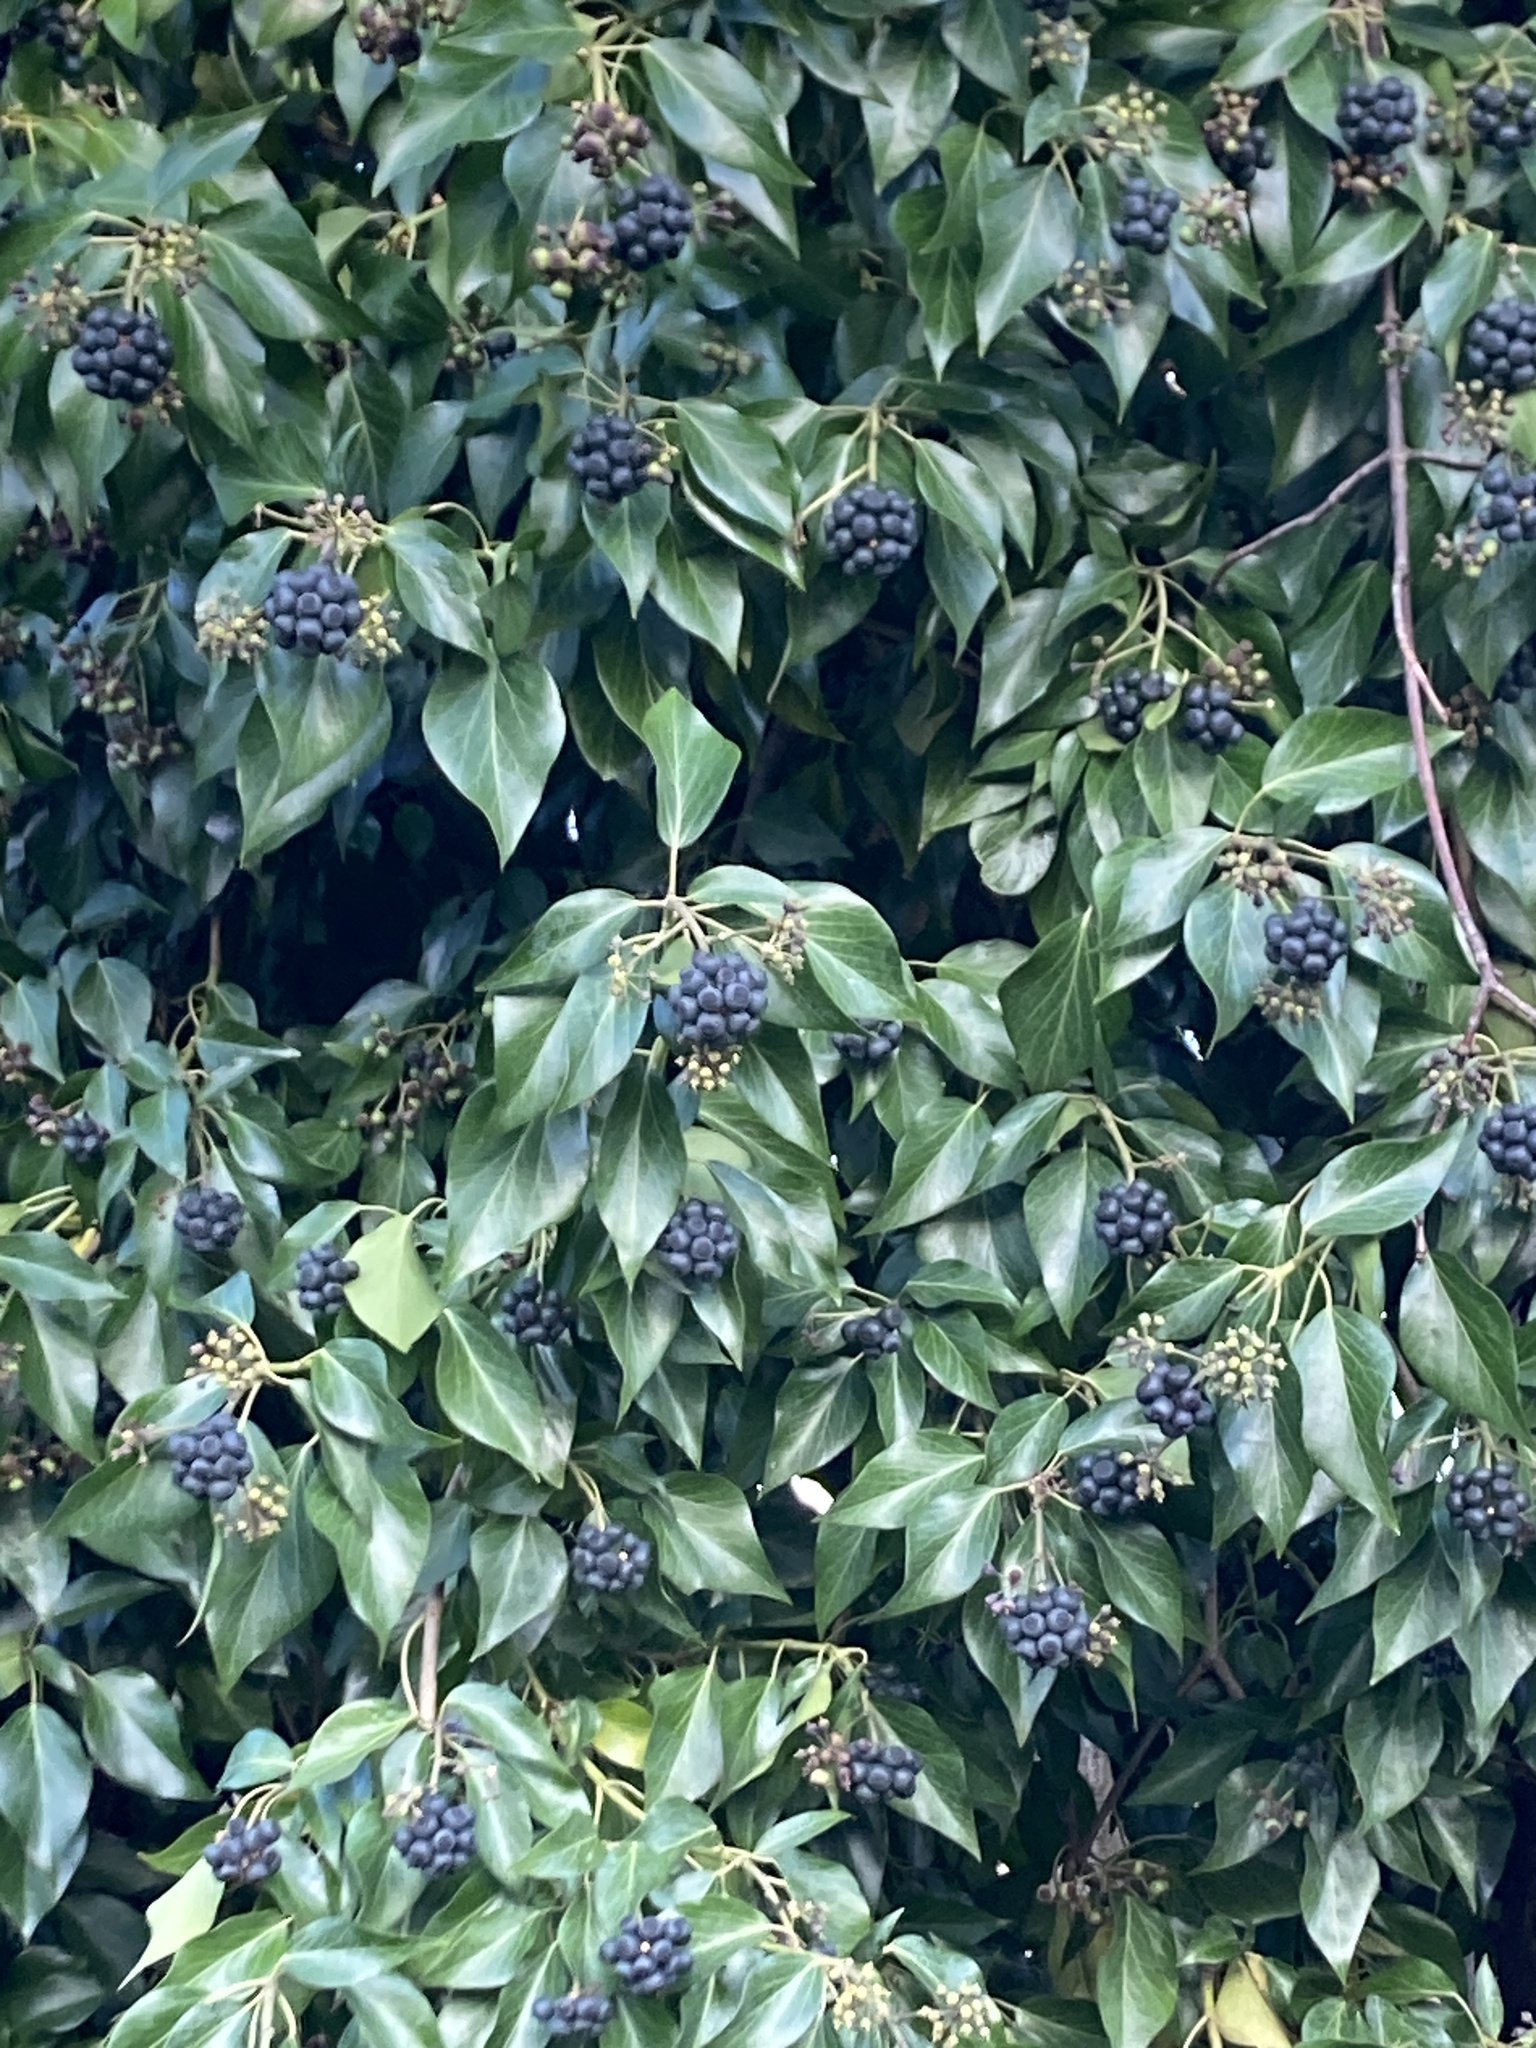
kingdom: Plantae
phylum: Tracheophyta
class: Magnoliopsida
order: Apiales
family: Araliaceae
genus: Hedera
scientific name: Hedera helix
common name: Ivy
